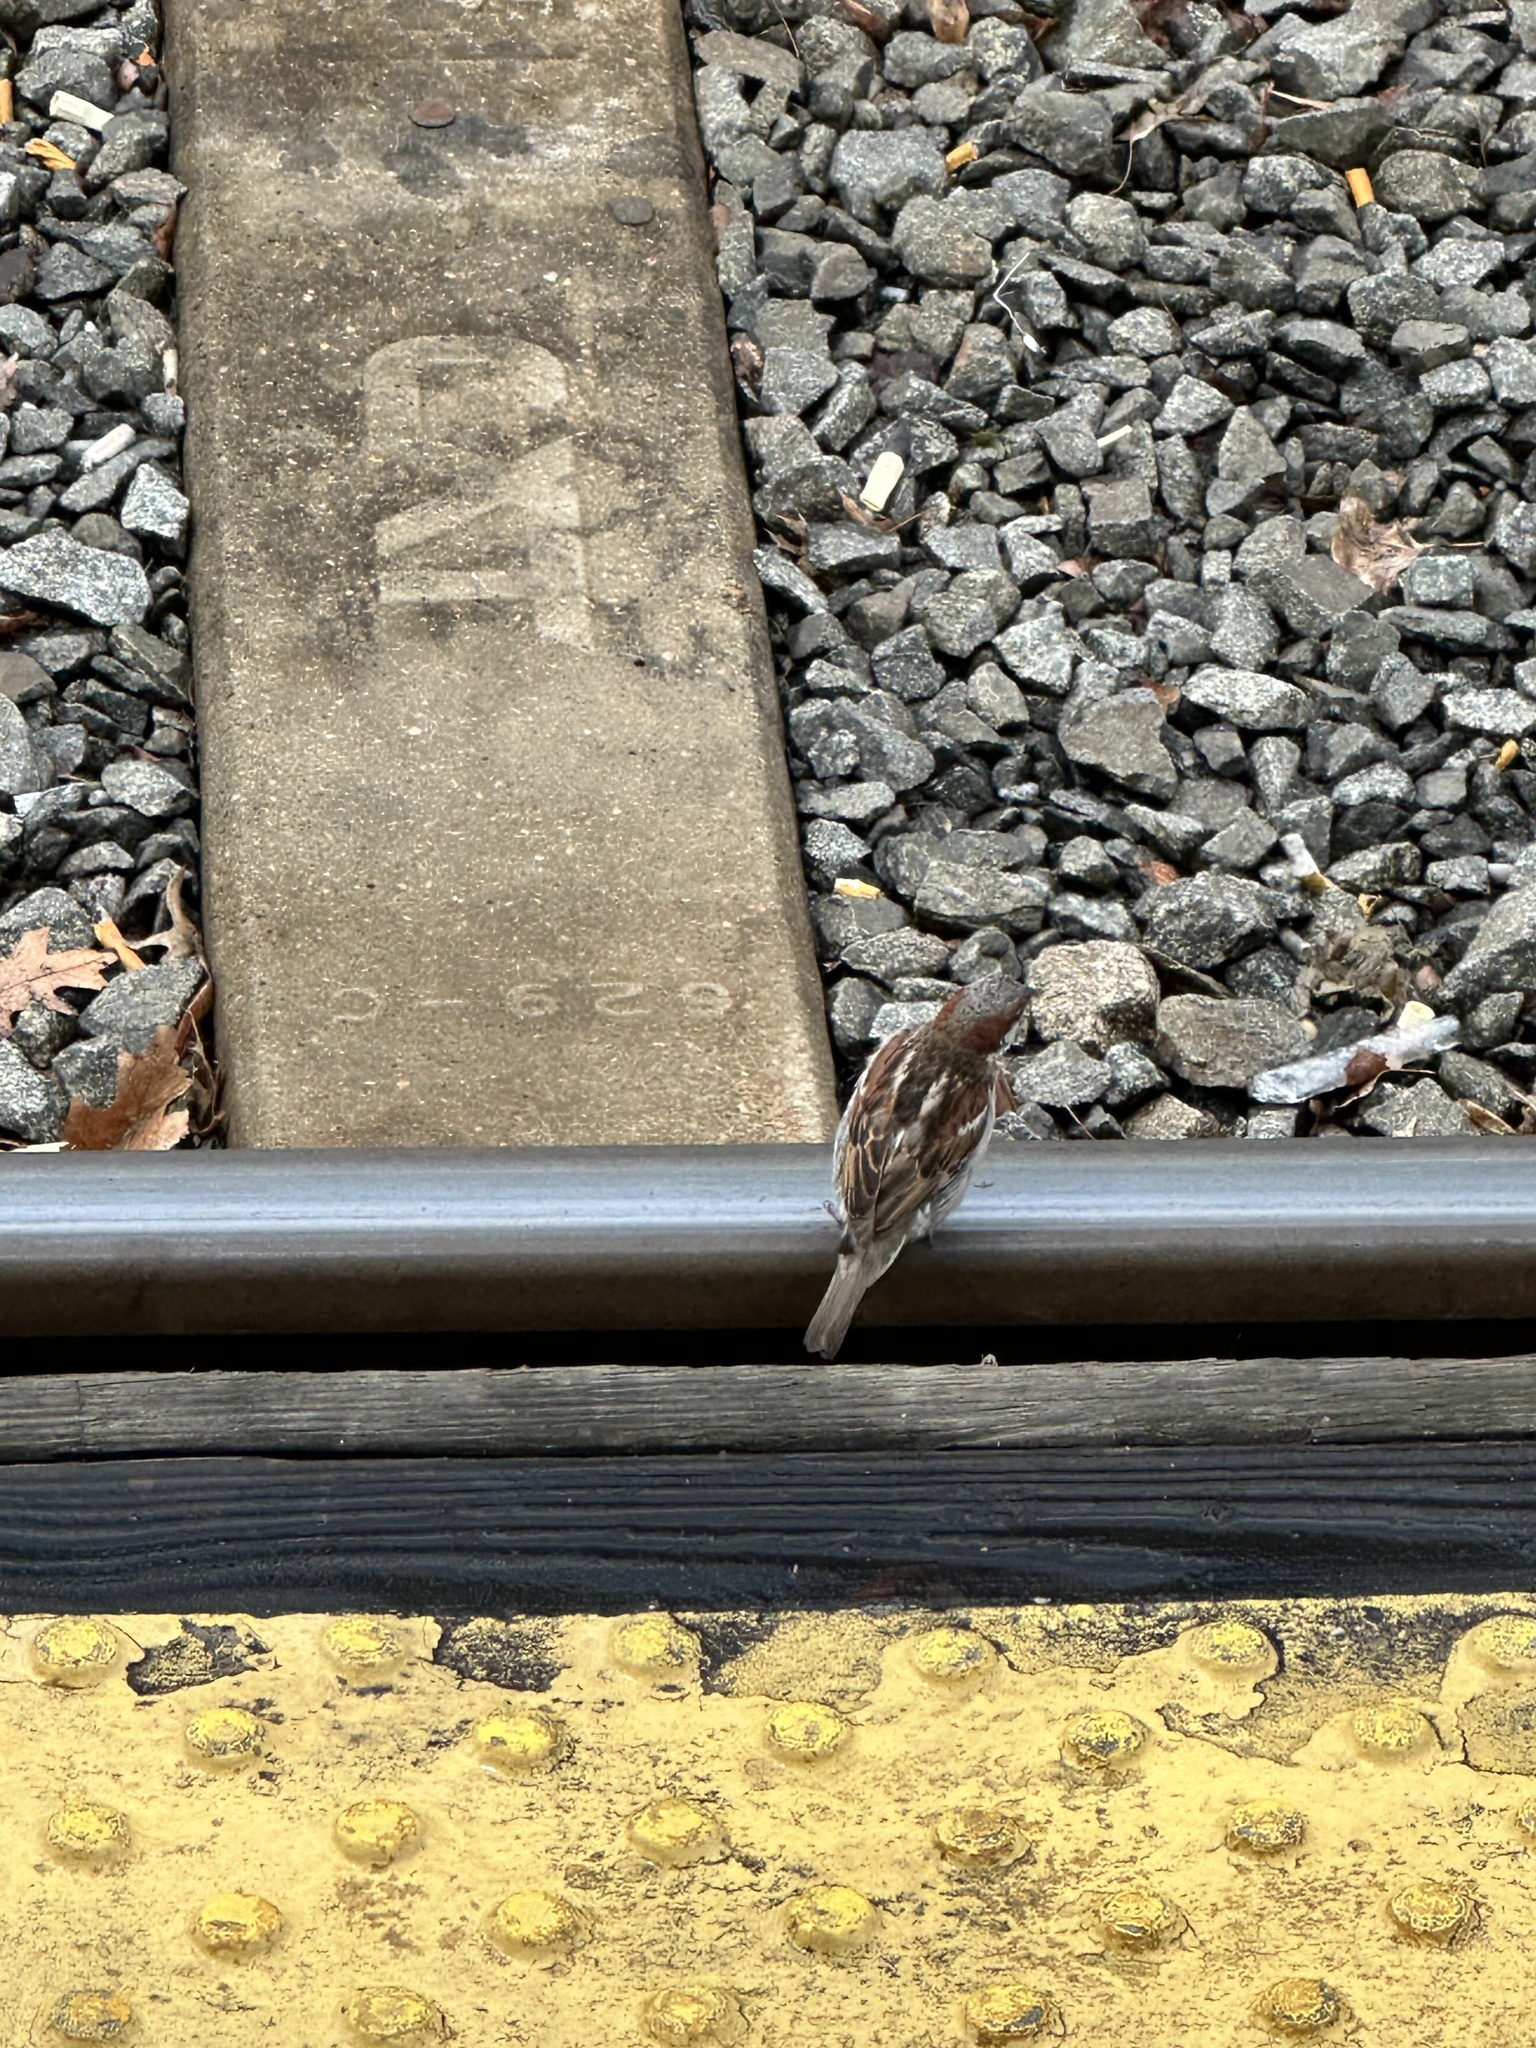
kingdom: Animalia
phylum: Chordata
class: Aves
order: Passeriformes
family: Passeridae
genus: Passer
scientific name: Passer domesticus
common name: House sparrow
